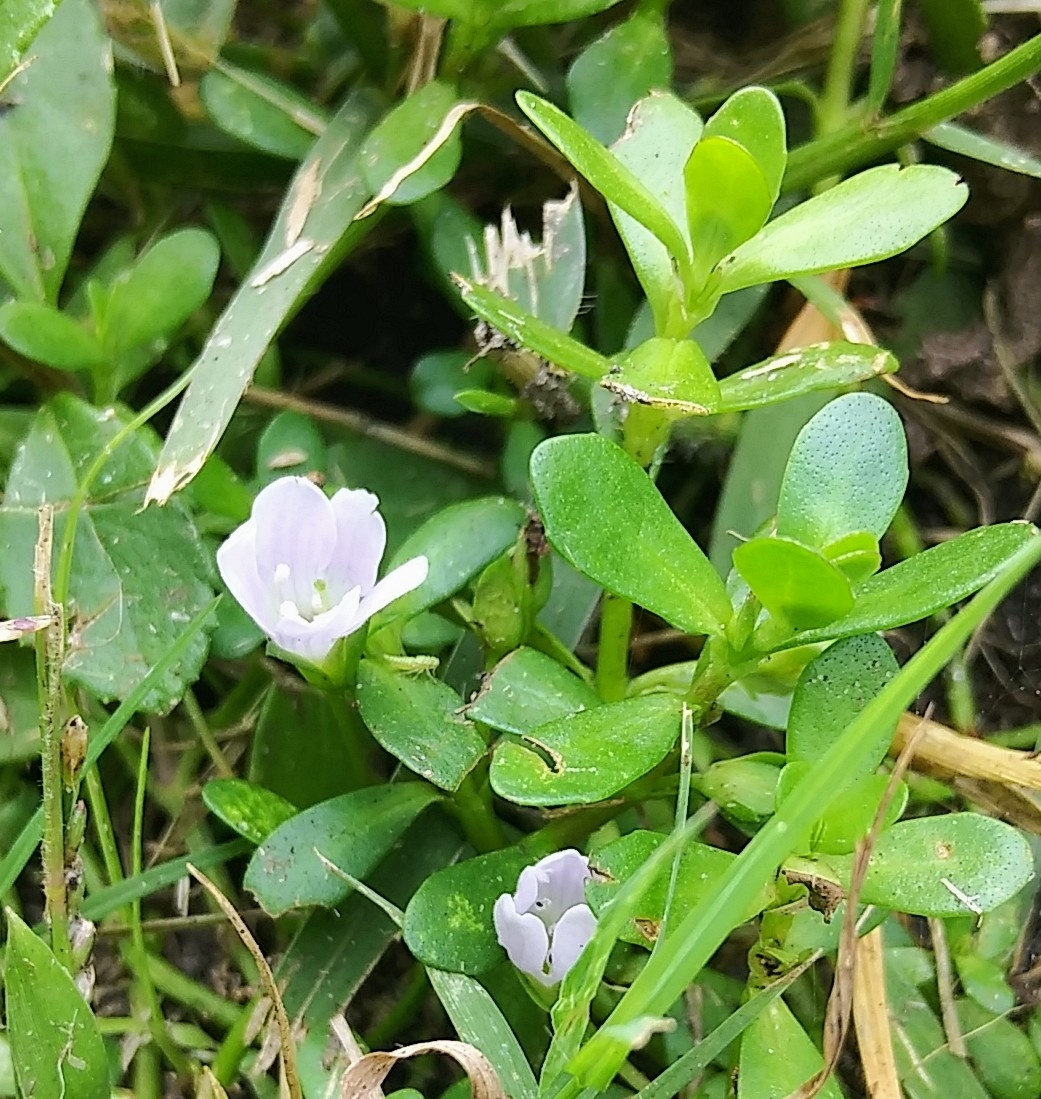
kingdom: Plantae
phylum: Tracheophyta
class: Magnoliopsida
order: Lamiales
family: Plantaginaceae
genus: Bacopa
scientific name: Bacopa monnieri
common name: Indian-pennywort
